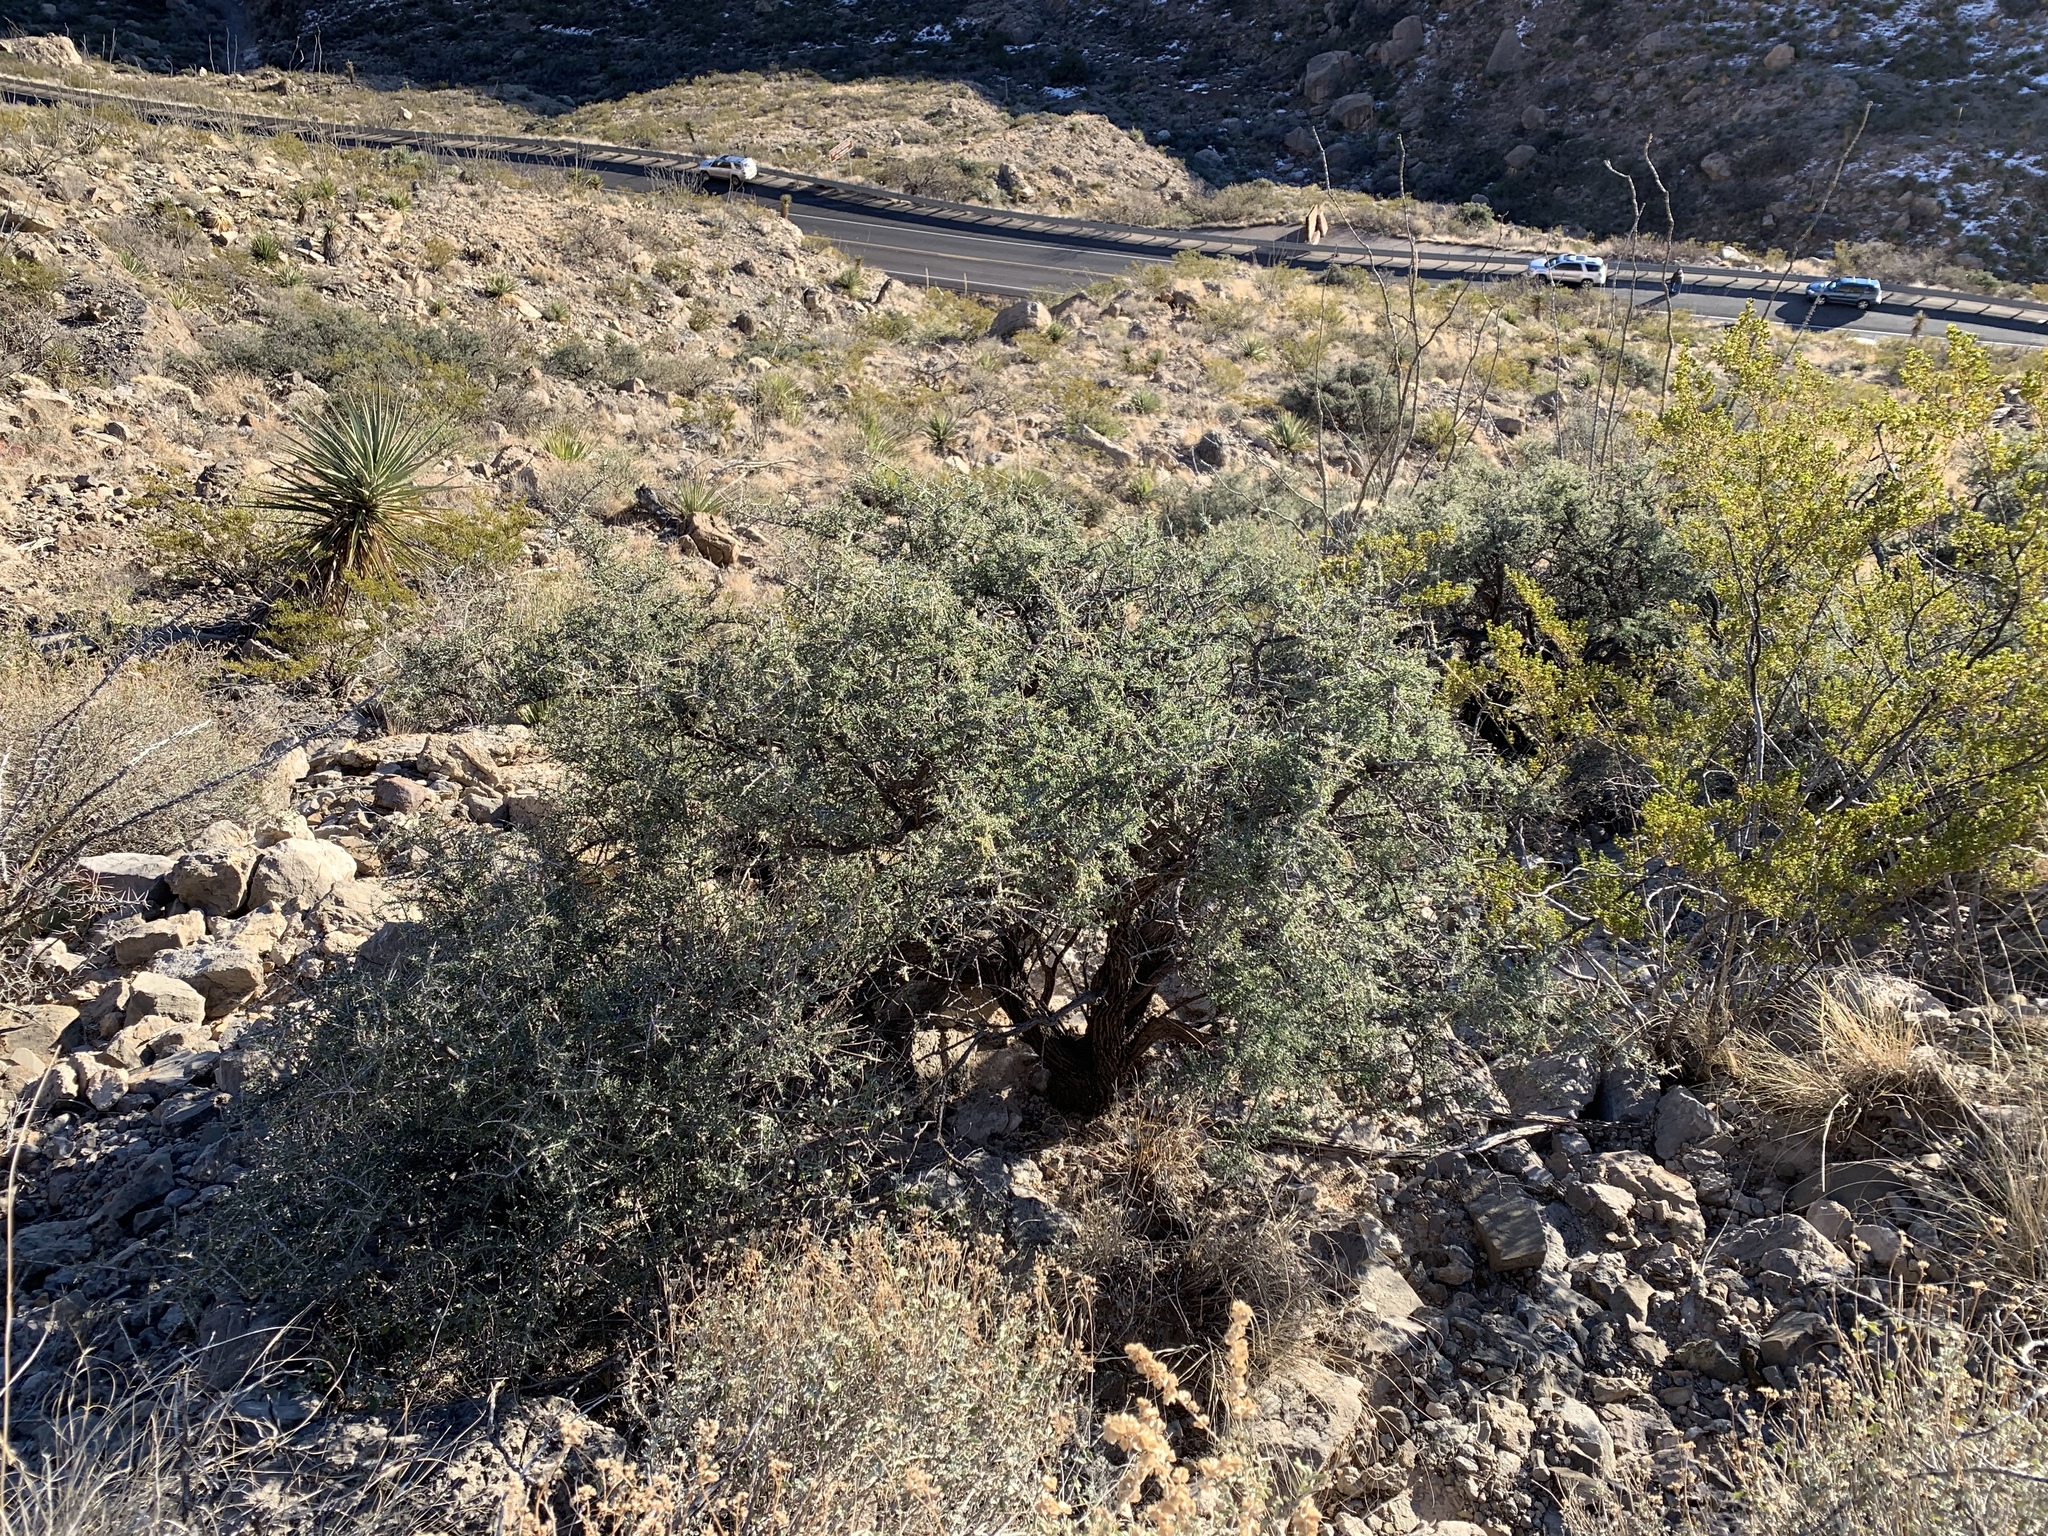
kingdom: Plantae
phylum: Tracheophyta
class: Magnoliopsida
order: Rosales
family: Rhamnaceae
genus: Condalia
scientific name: Condalia warnockii
